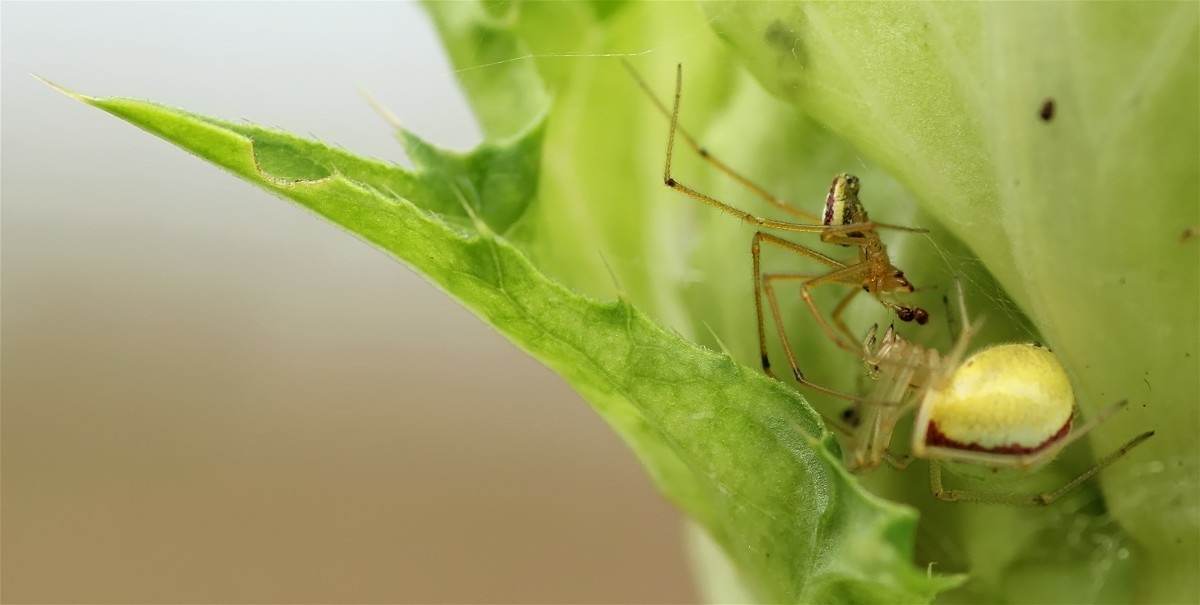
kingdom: Animalia
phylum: Arthropoda
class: Arachnida
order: Araneae
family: Theridiidae
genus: Enoplognatha
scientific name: Enoplognatha
